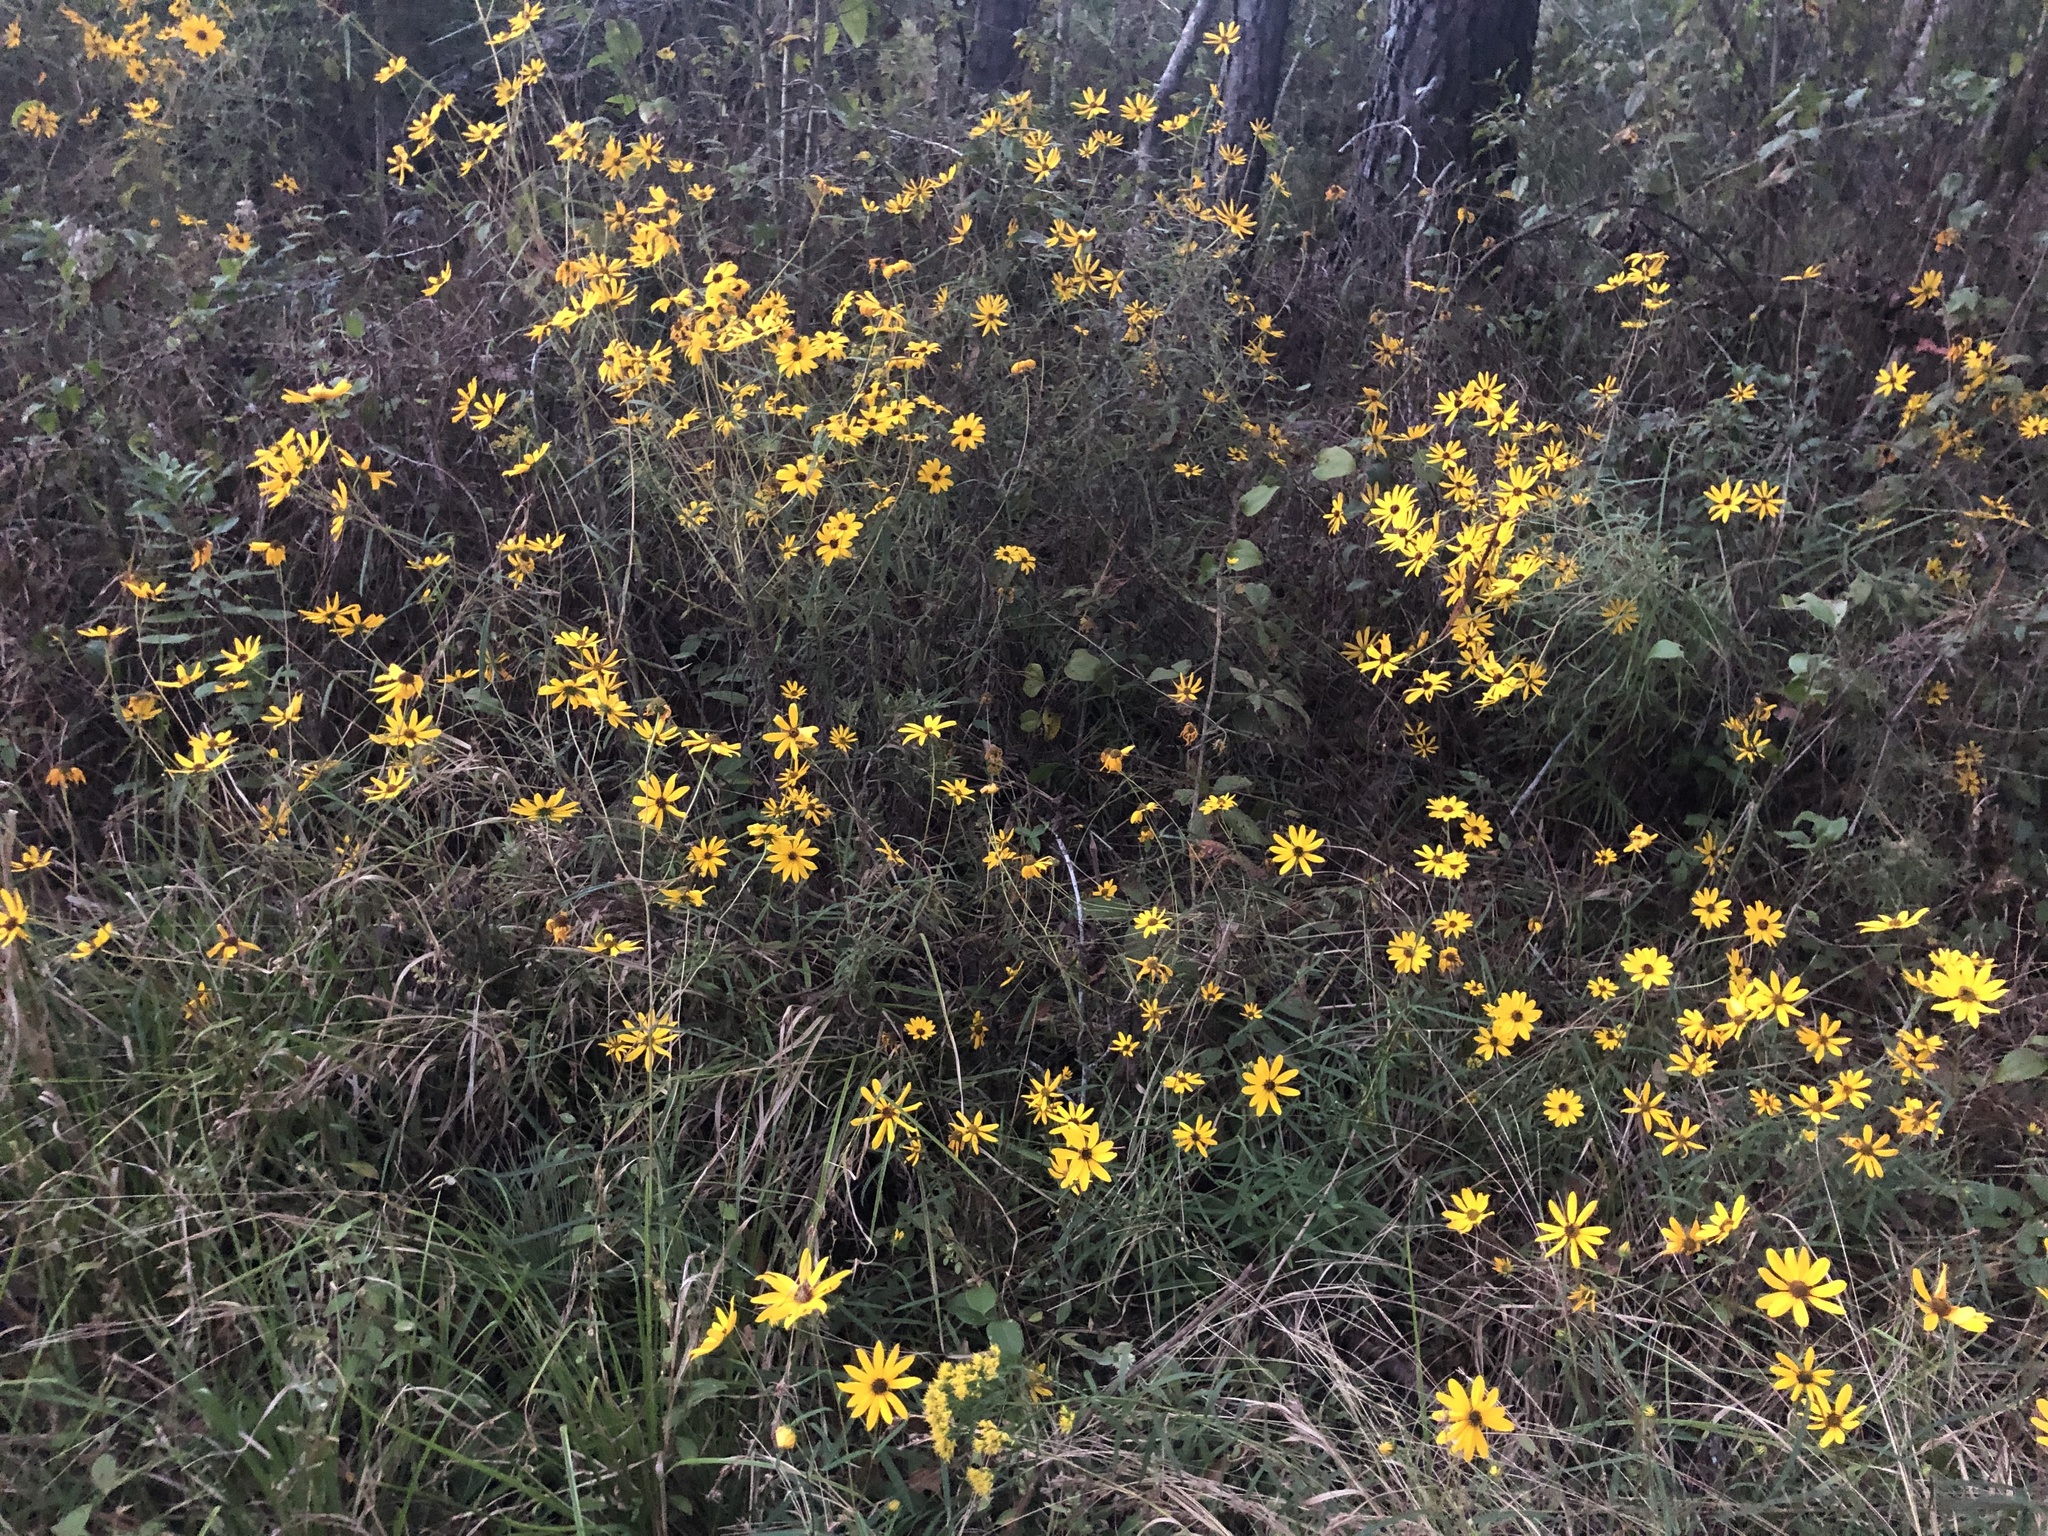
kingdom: Plantae
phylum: Tracheophyta
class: Magnoliopsida
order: Asterales
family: Asteraceae
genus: Helianthus
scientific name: Helianthus angustifolius
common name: Swamp sunflower
